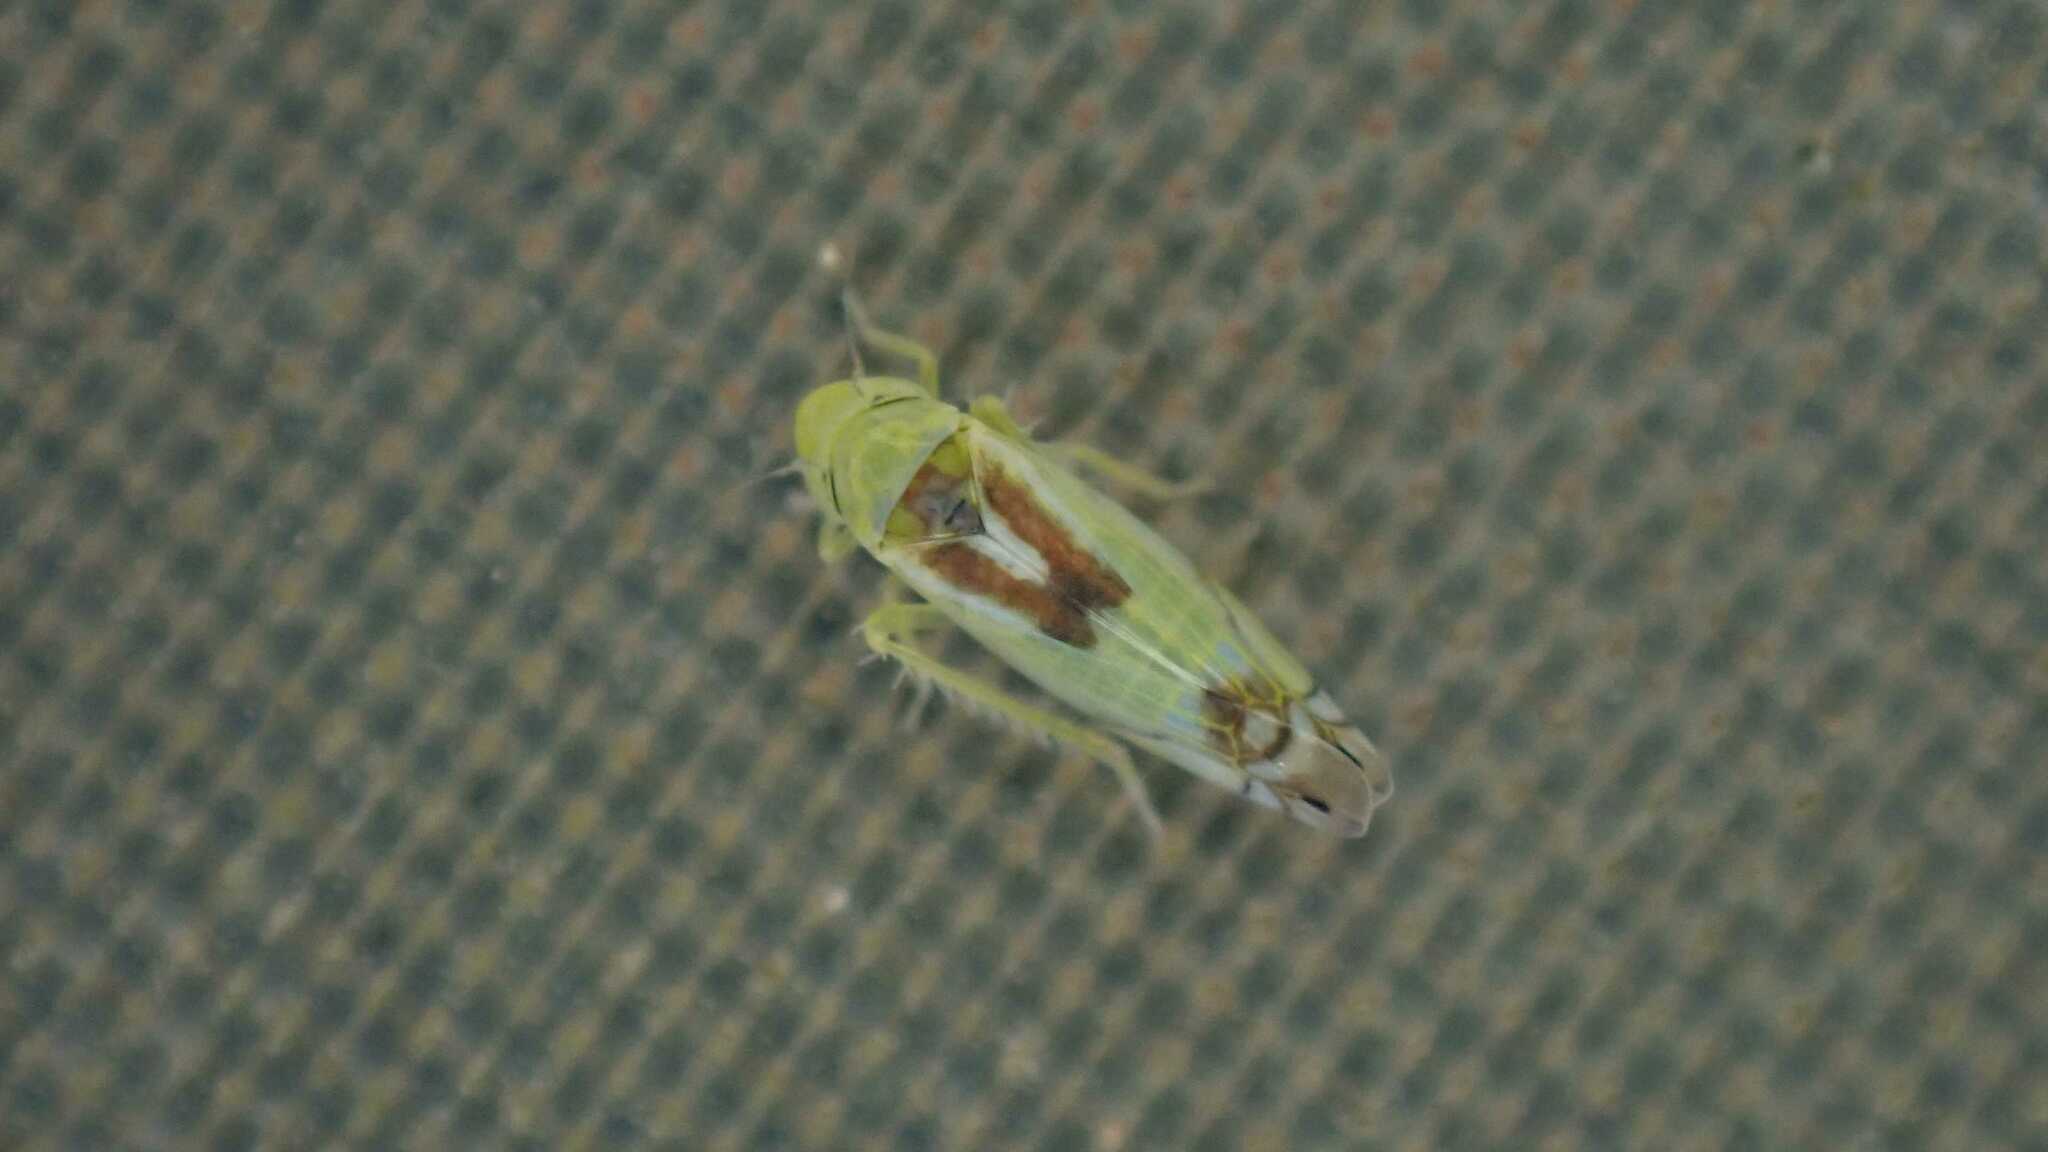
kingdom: Animalia
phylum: Arthropoda
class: Insecta
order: Hemiptera
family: Cicadellidae
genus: Zyginella
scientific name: Zyginella pulchra
